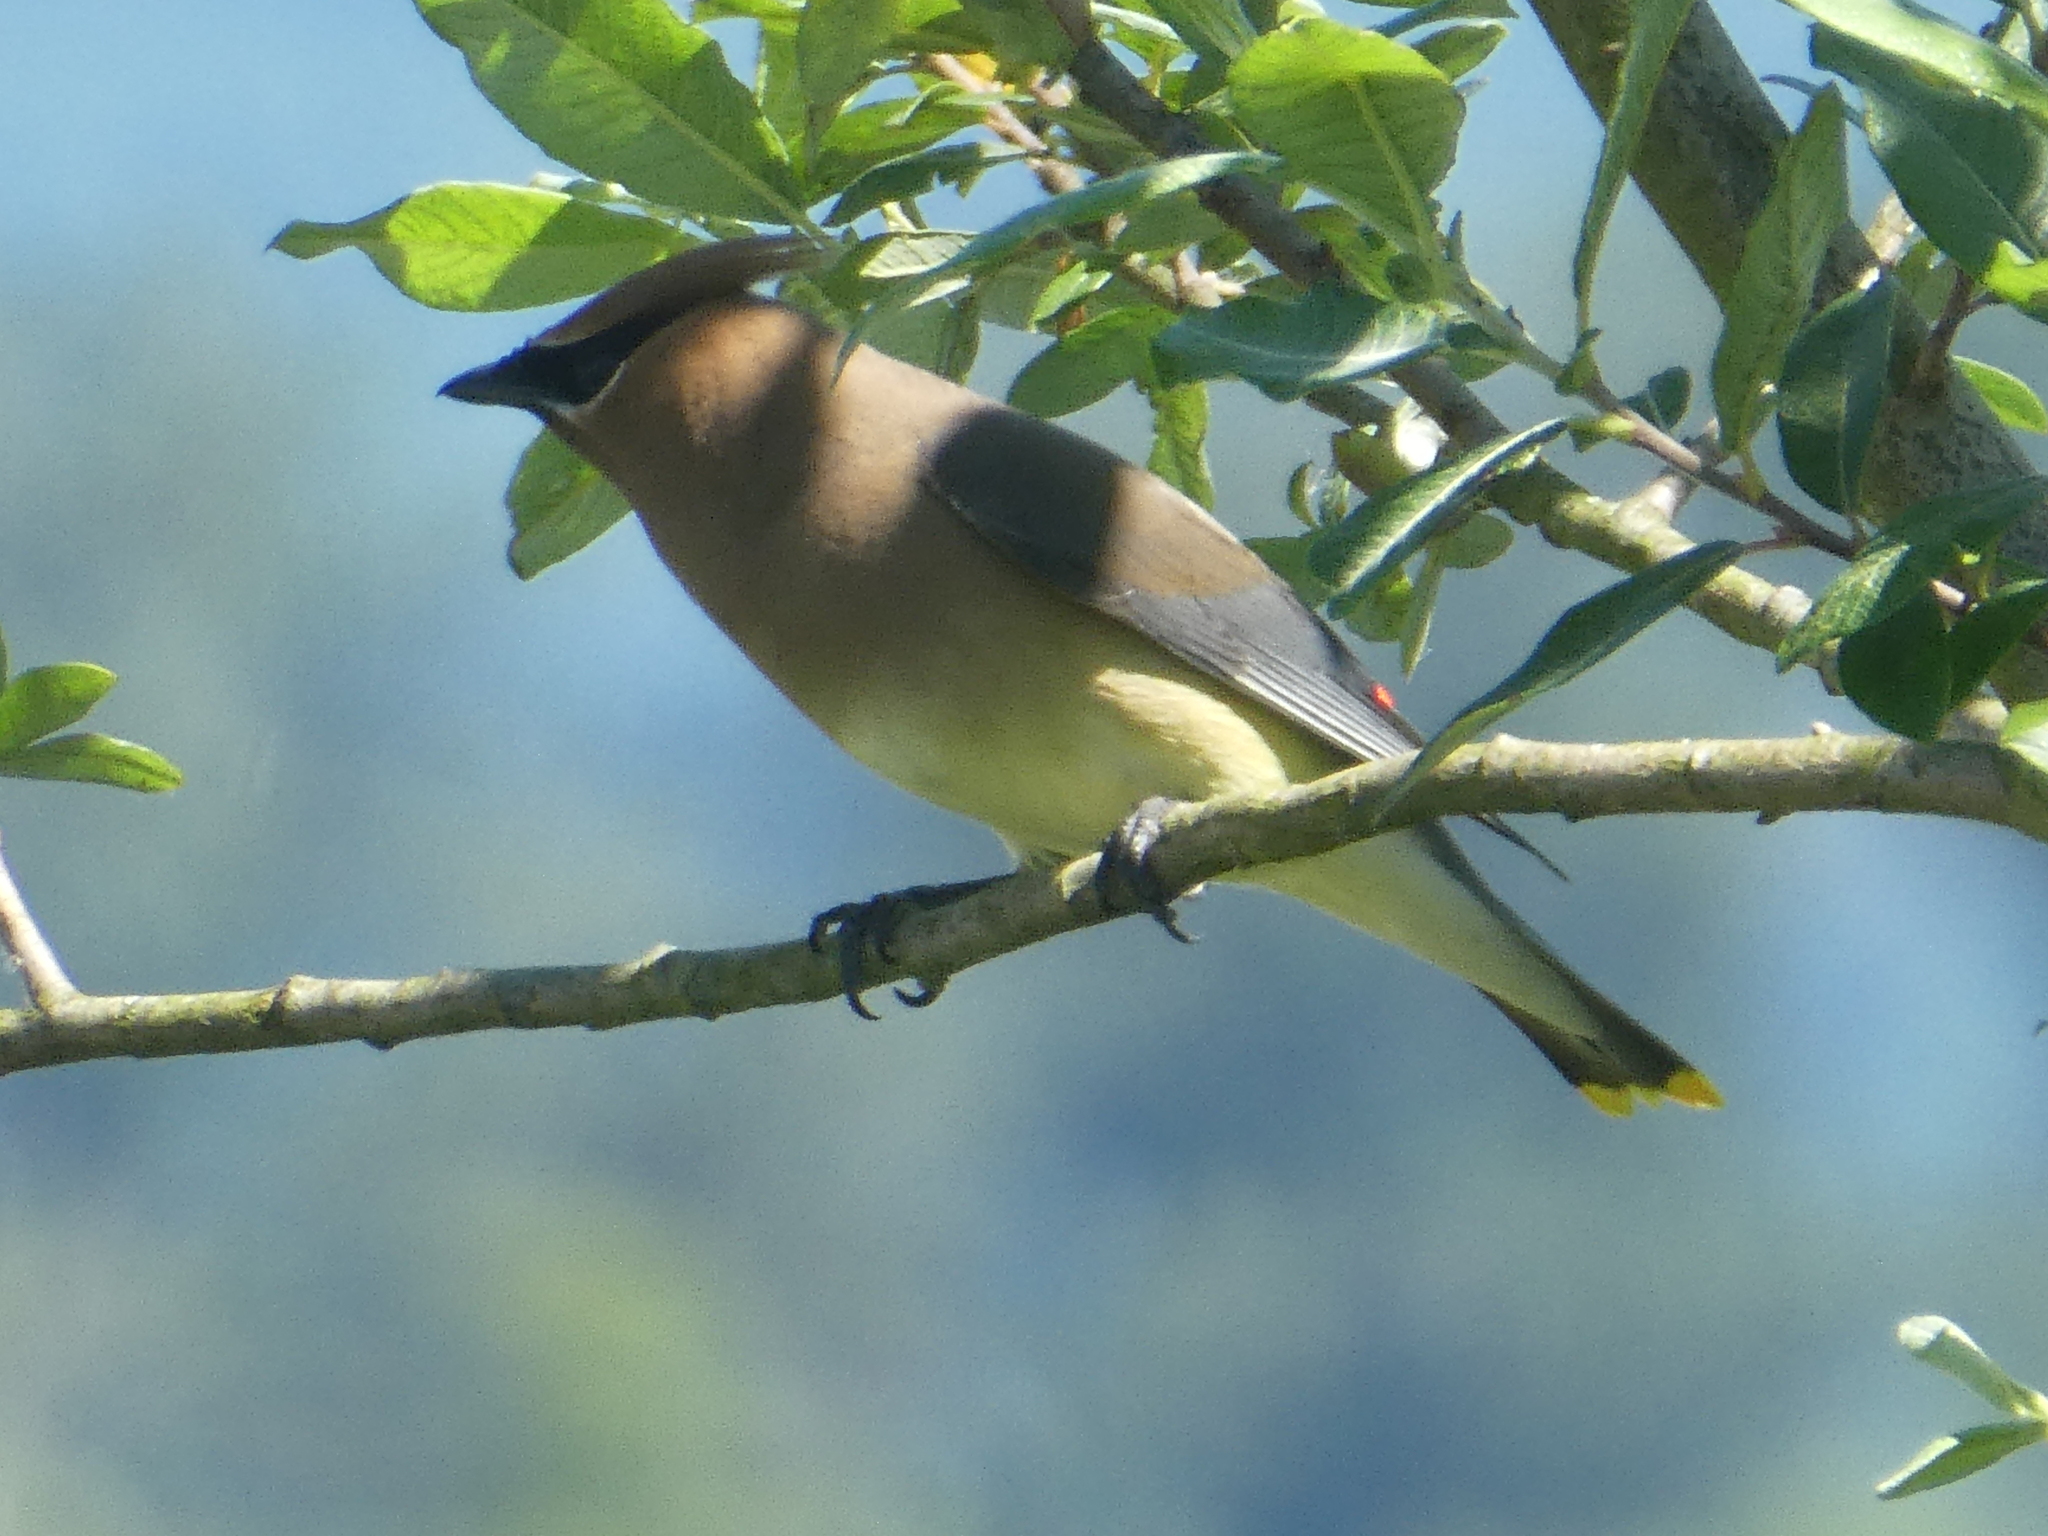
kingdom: Animalia
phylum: Chordata
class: Aves
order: Passeriformes
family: Bombycillidae
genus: Bombycilla
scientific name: Bombycilla cedrorum
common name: Cedar waxwing
